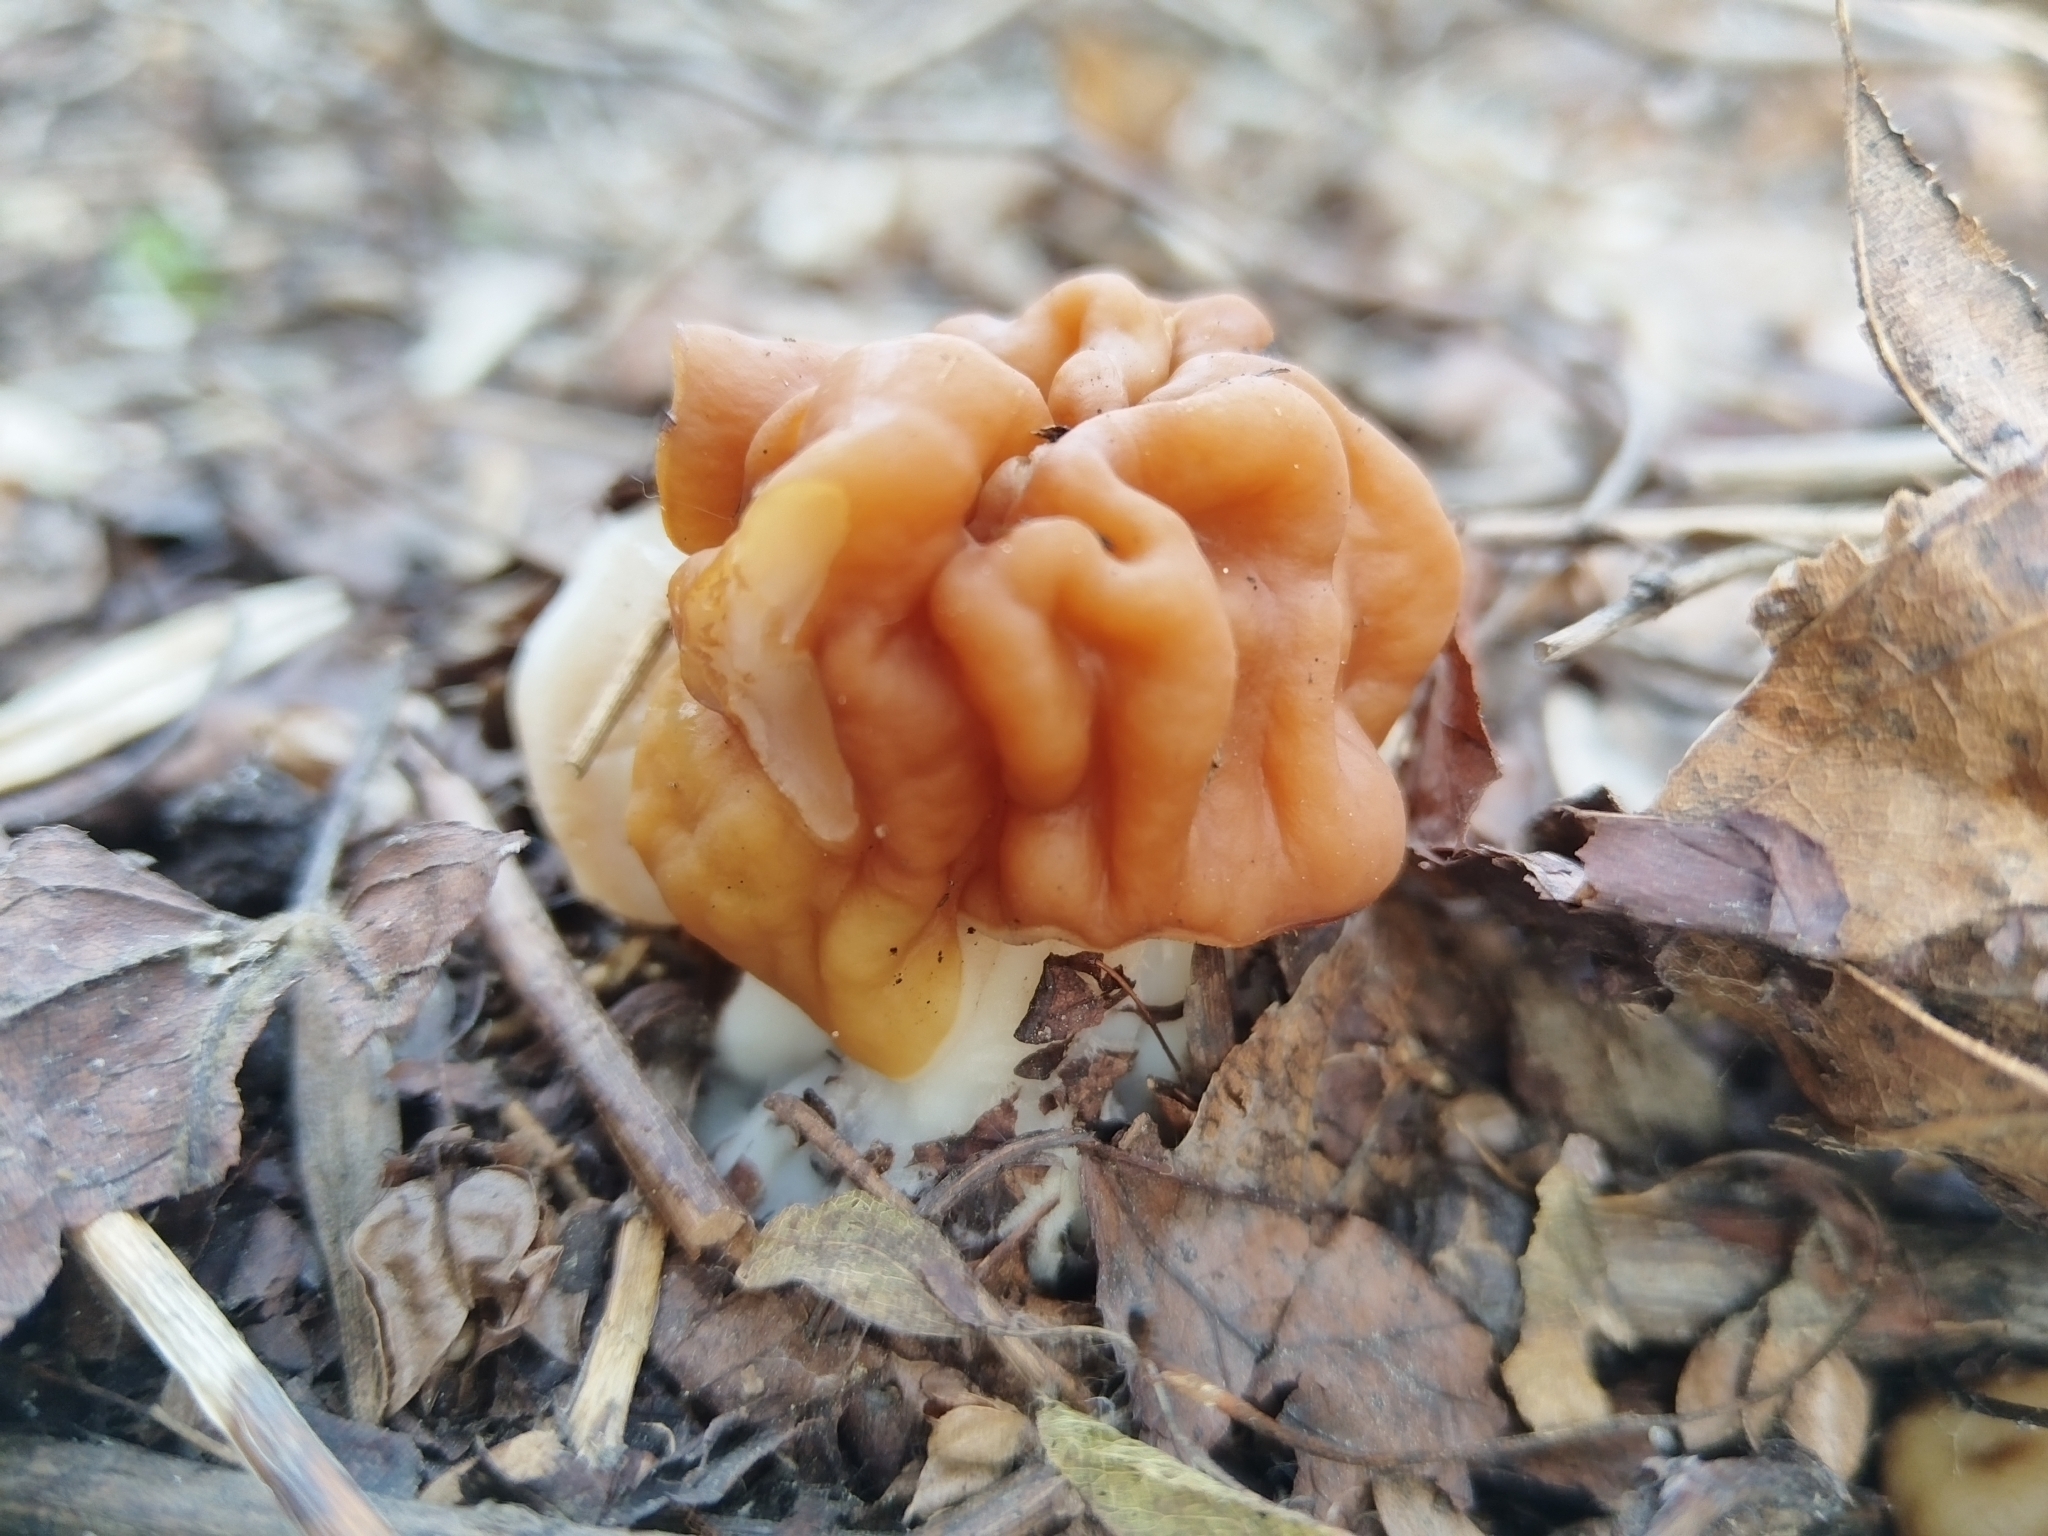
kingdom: Fungi
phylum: Ascomycota
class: Pezizomycetes
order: Pezizales
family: Discinaceae
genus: Gyromitra
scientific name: Gyromitra gigas
